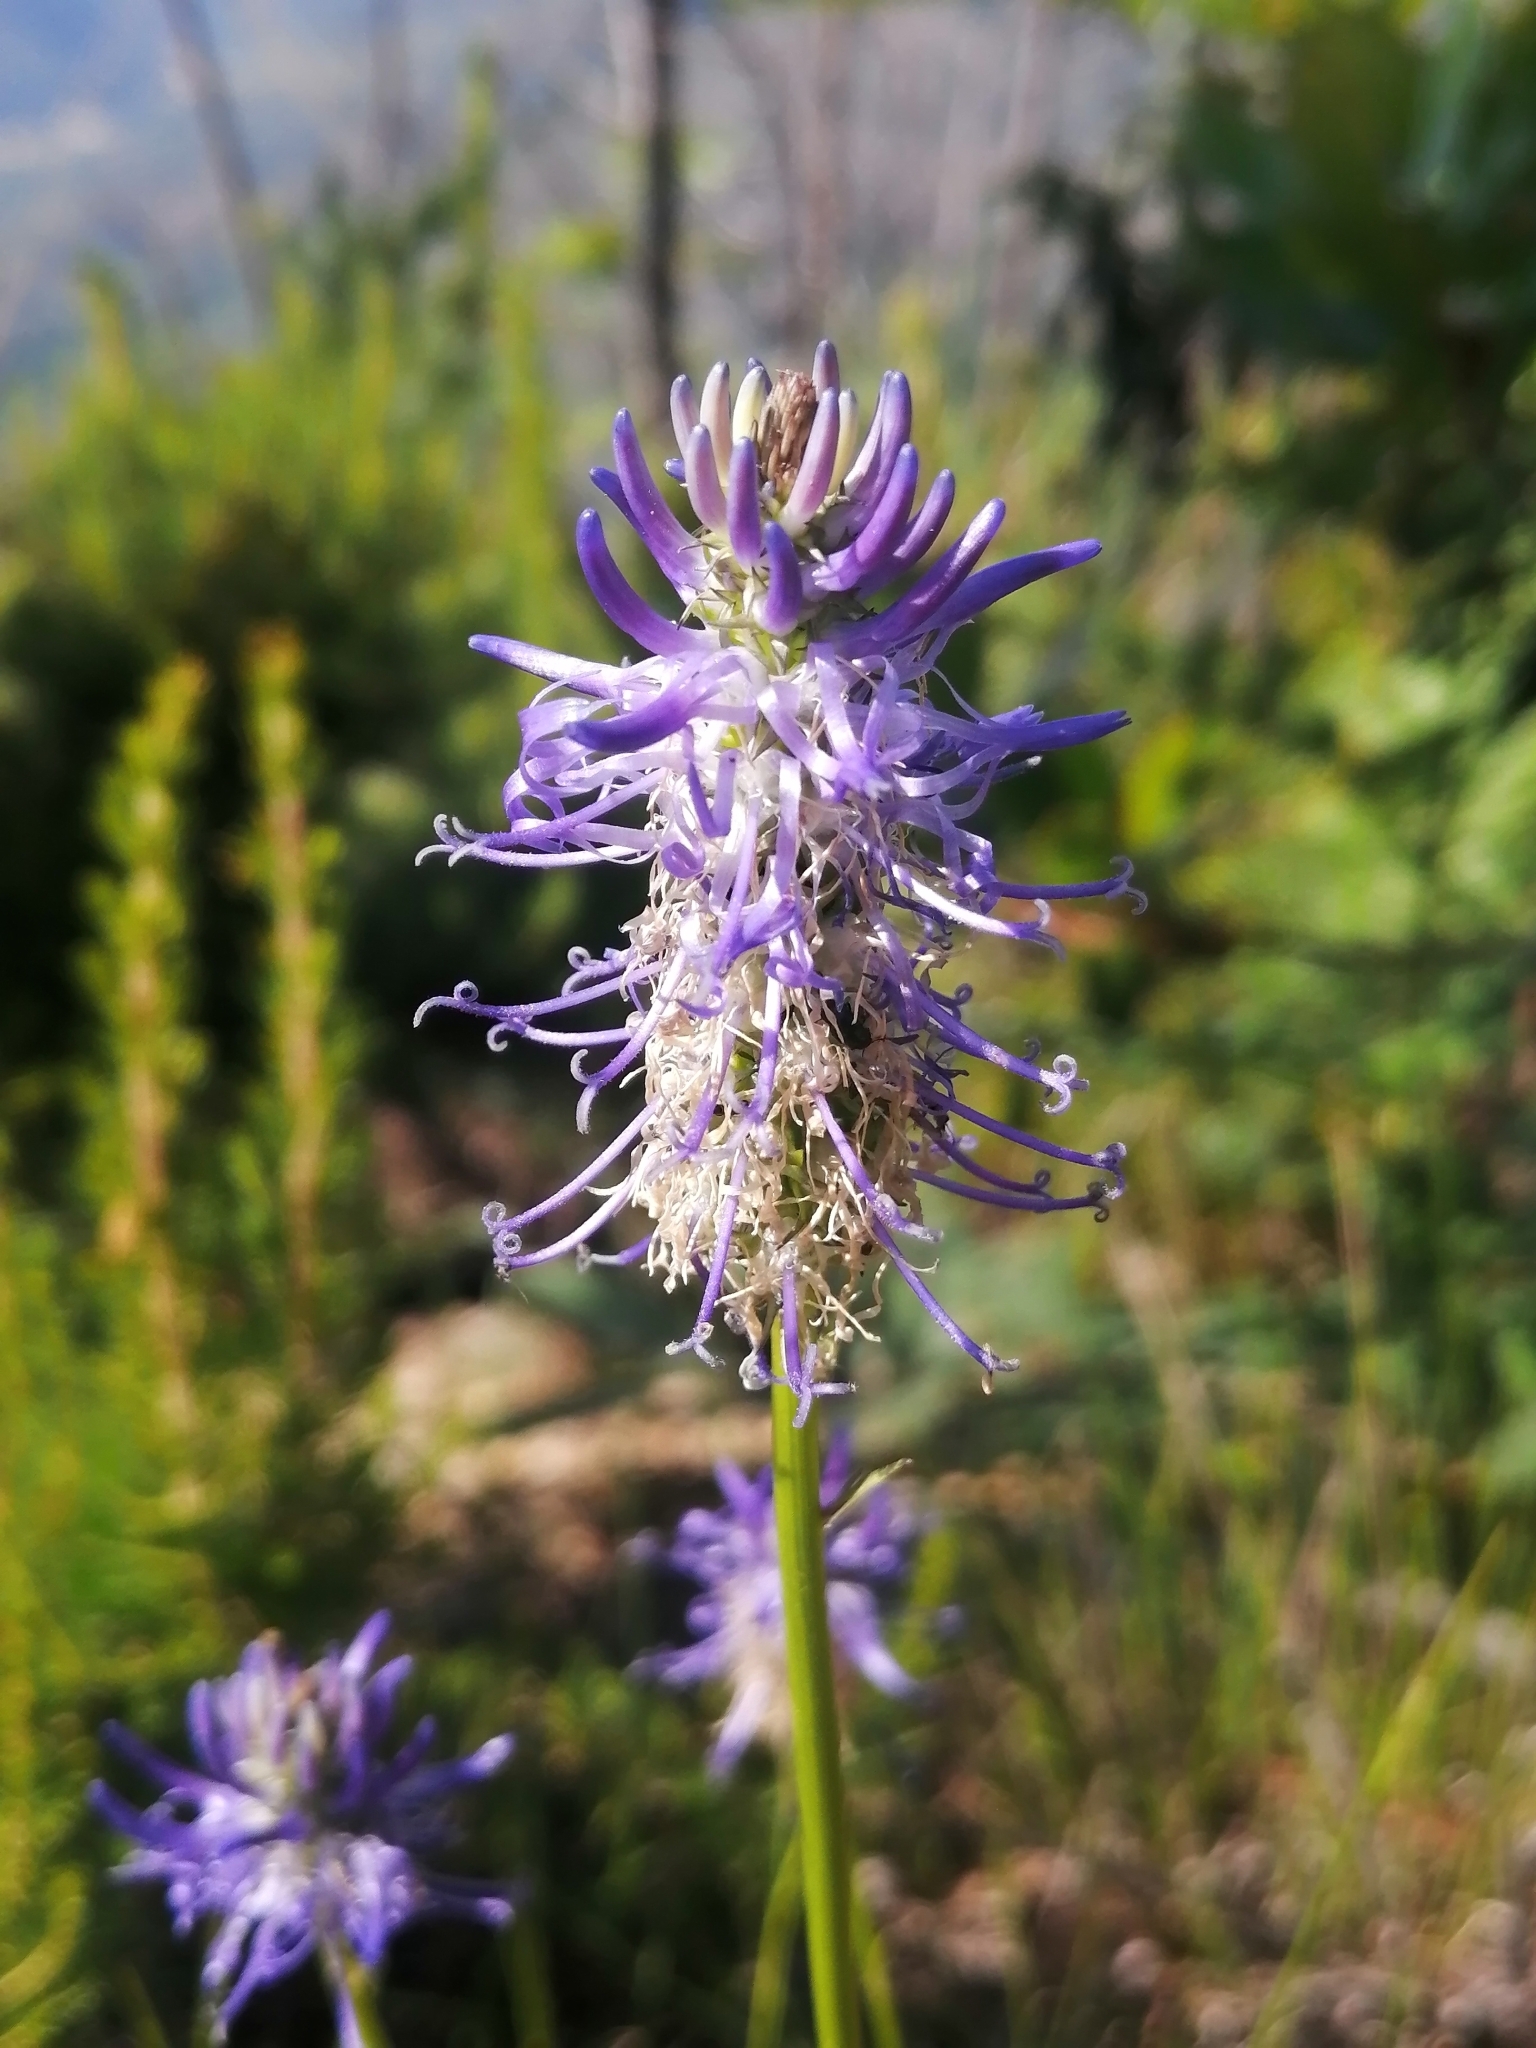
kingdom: Plantae
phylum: Tracheophyta
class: Magnoliopsida
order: Asterales
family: Campanulaceae
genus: Phyteuma
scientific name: Phyteuma scorzonerifolium
